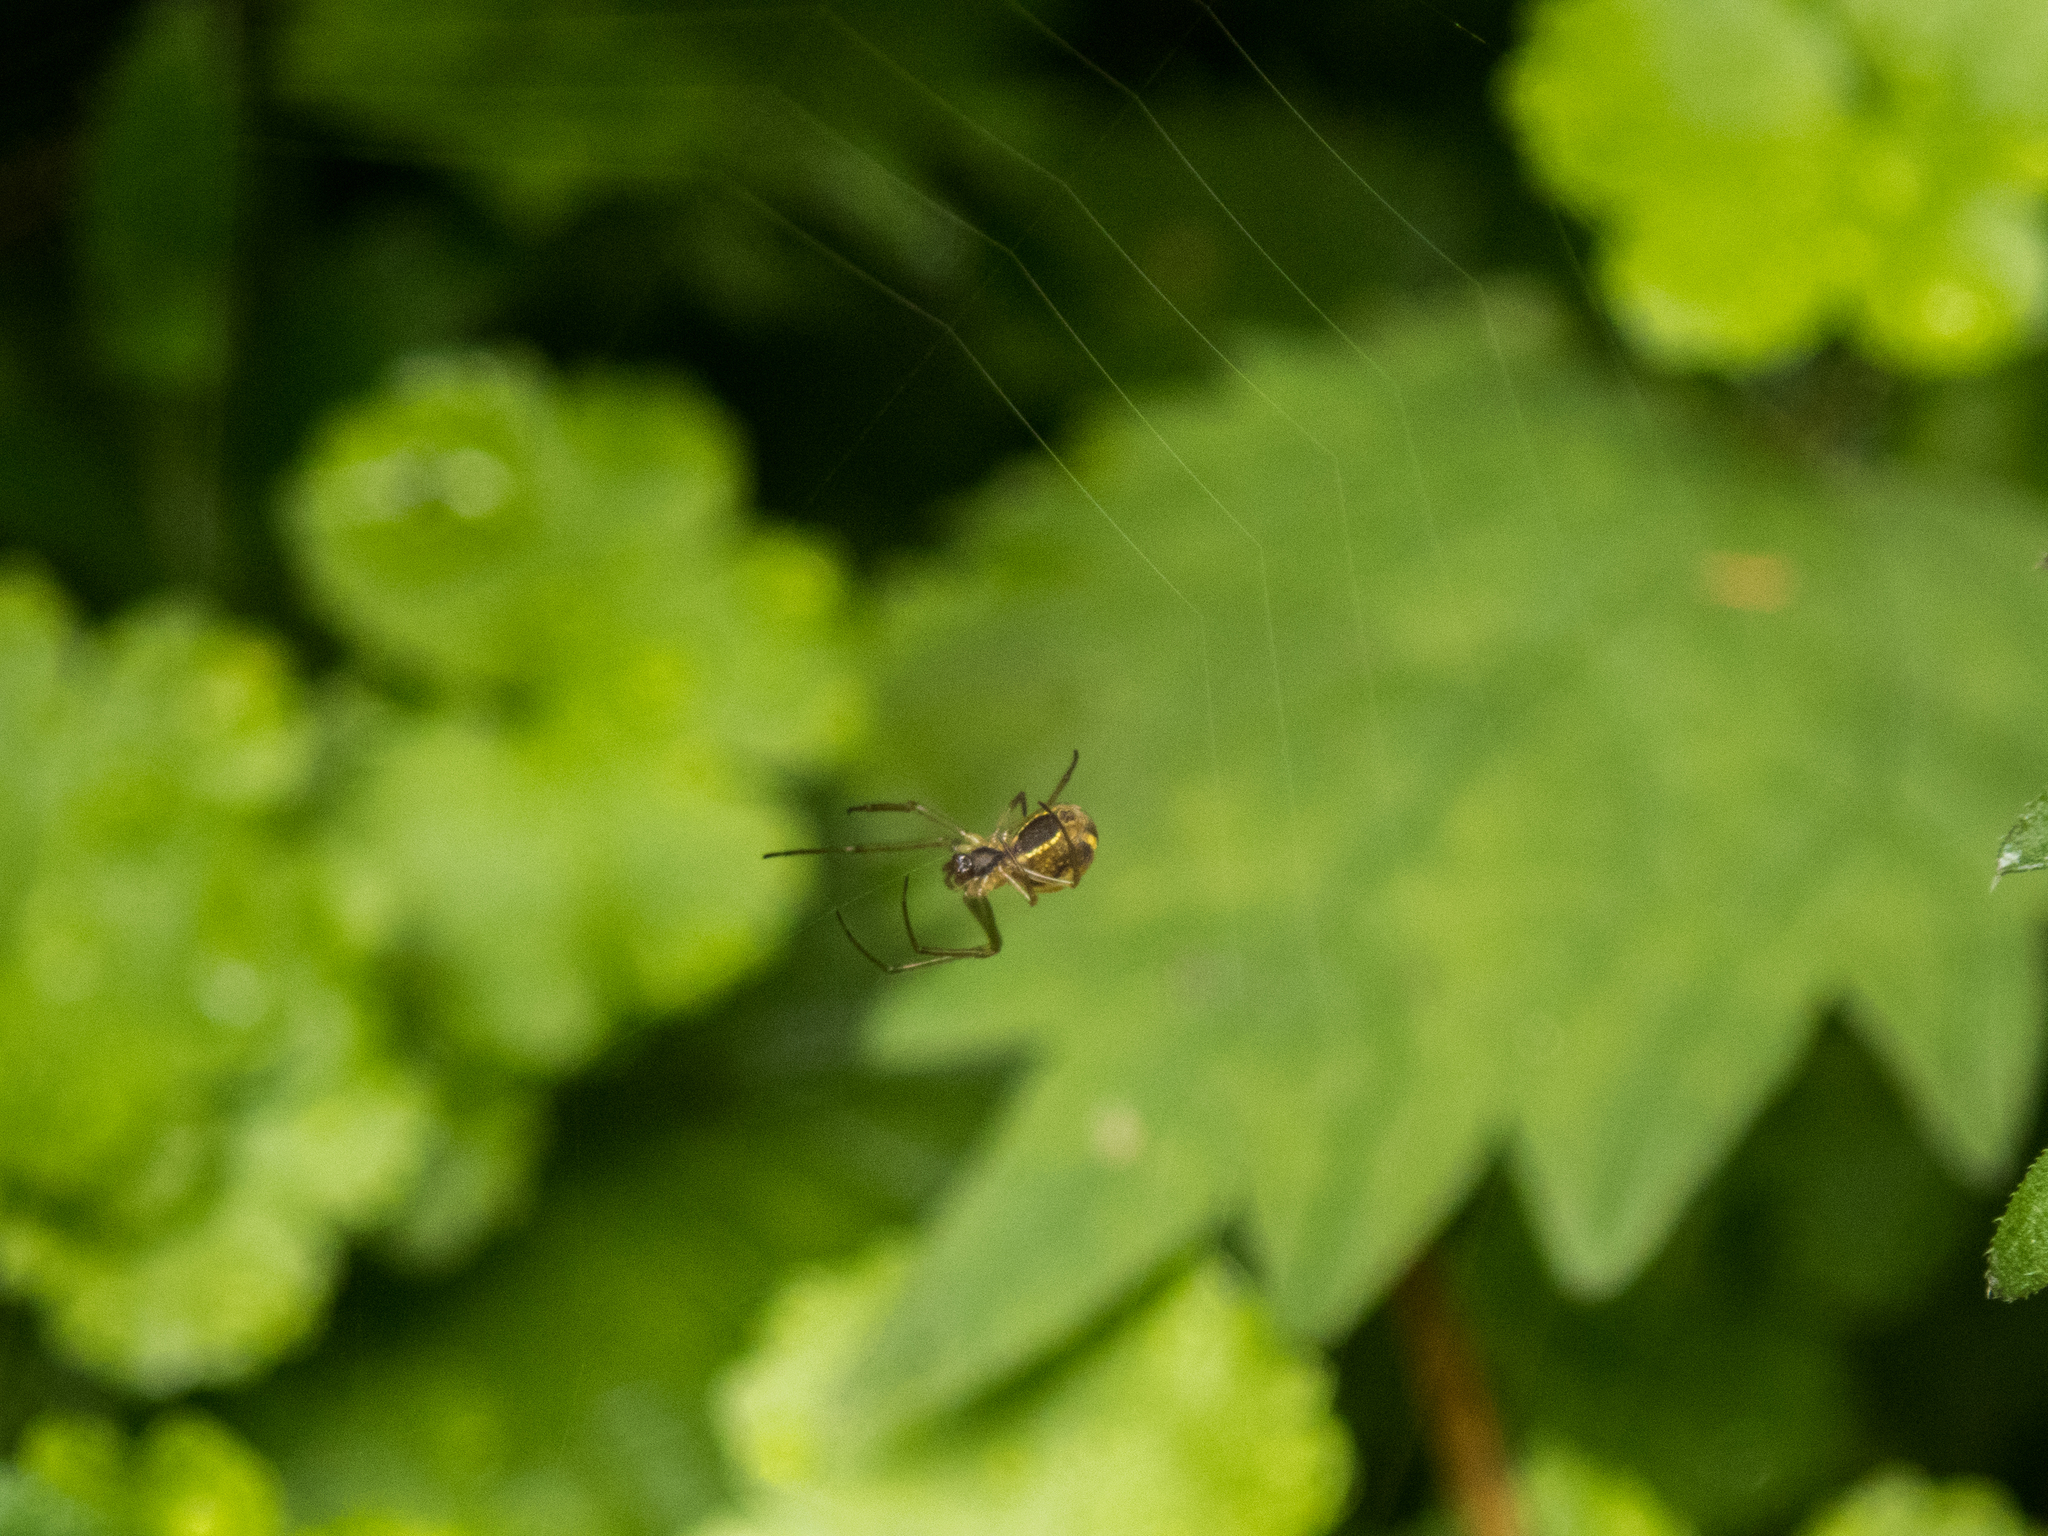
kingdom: Animalia
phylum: Arthropoda
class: Arachnida
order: Araneae
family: Tetragnathidae
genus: Nanometa
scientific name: Nanometa forsteri
